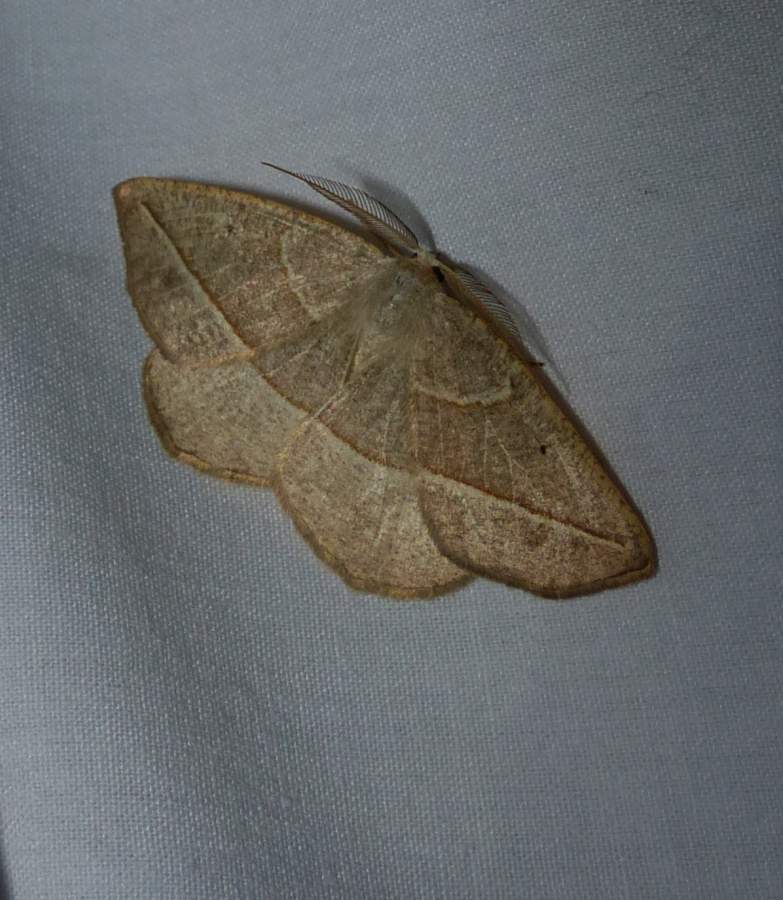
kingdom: Animalia
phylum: Arthropoda
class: Insecta
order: Lepidoptera
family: Geometridae
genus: Eusarca
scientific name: Eusarca confusaria
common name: Confused eusarca
